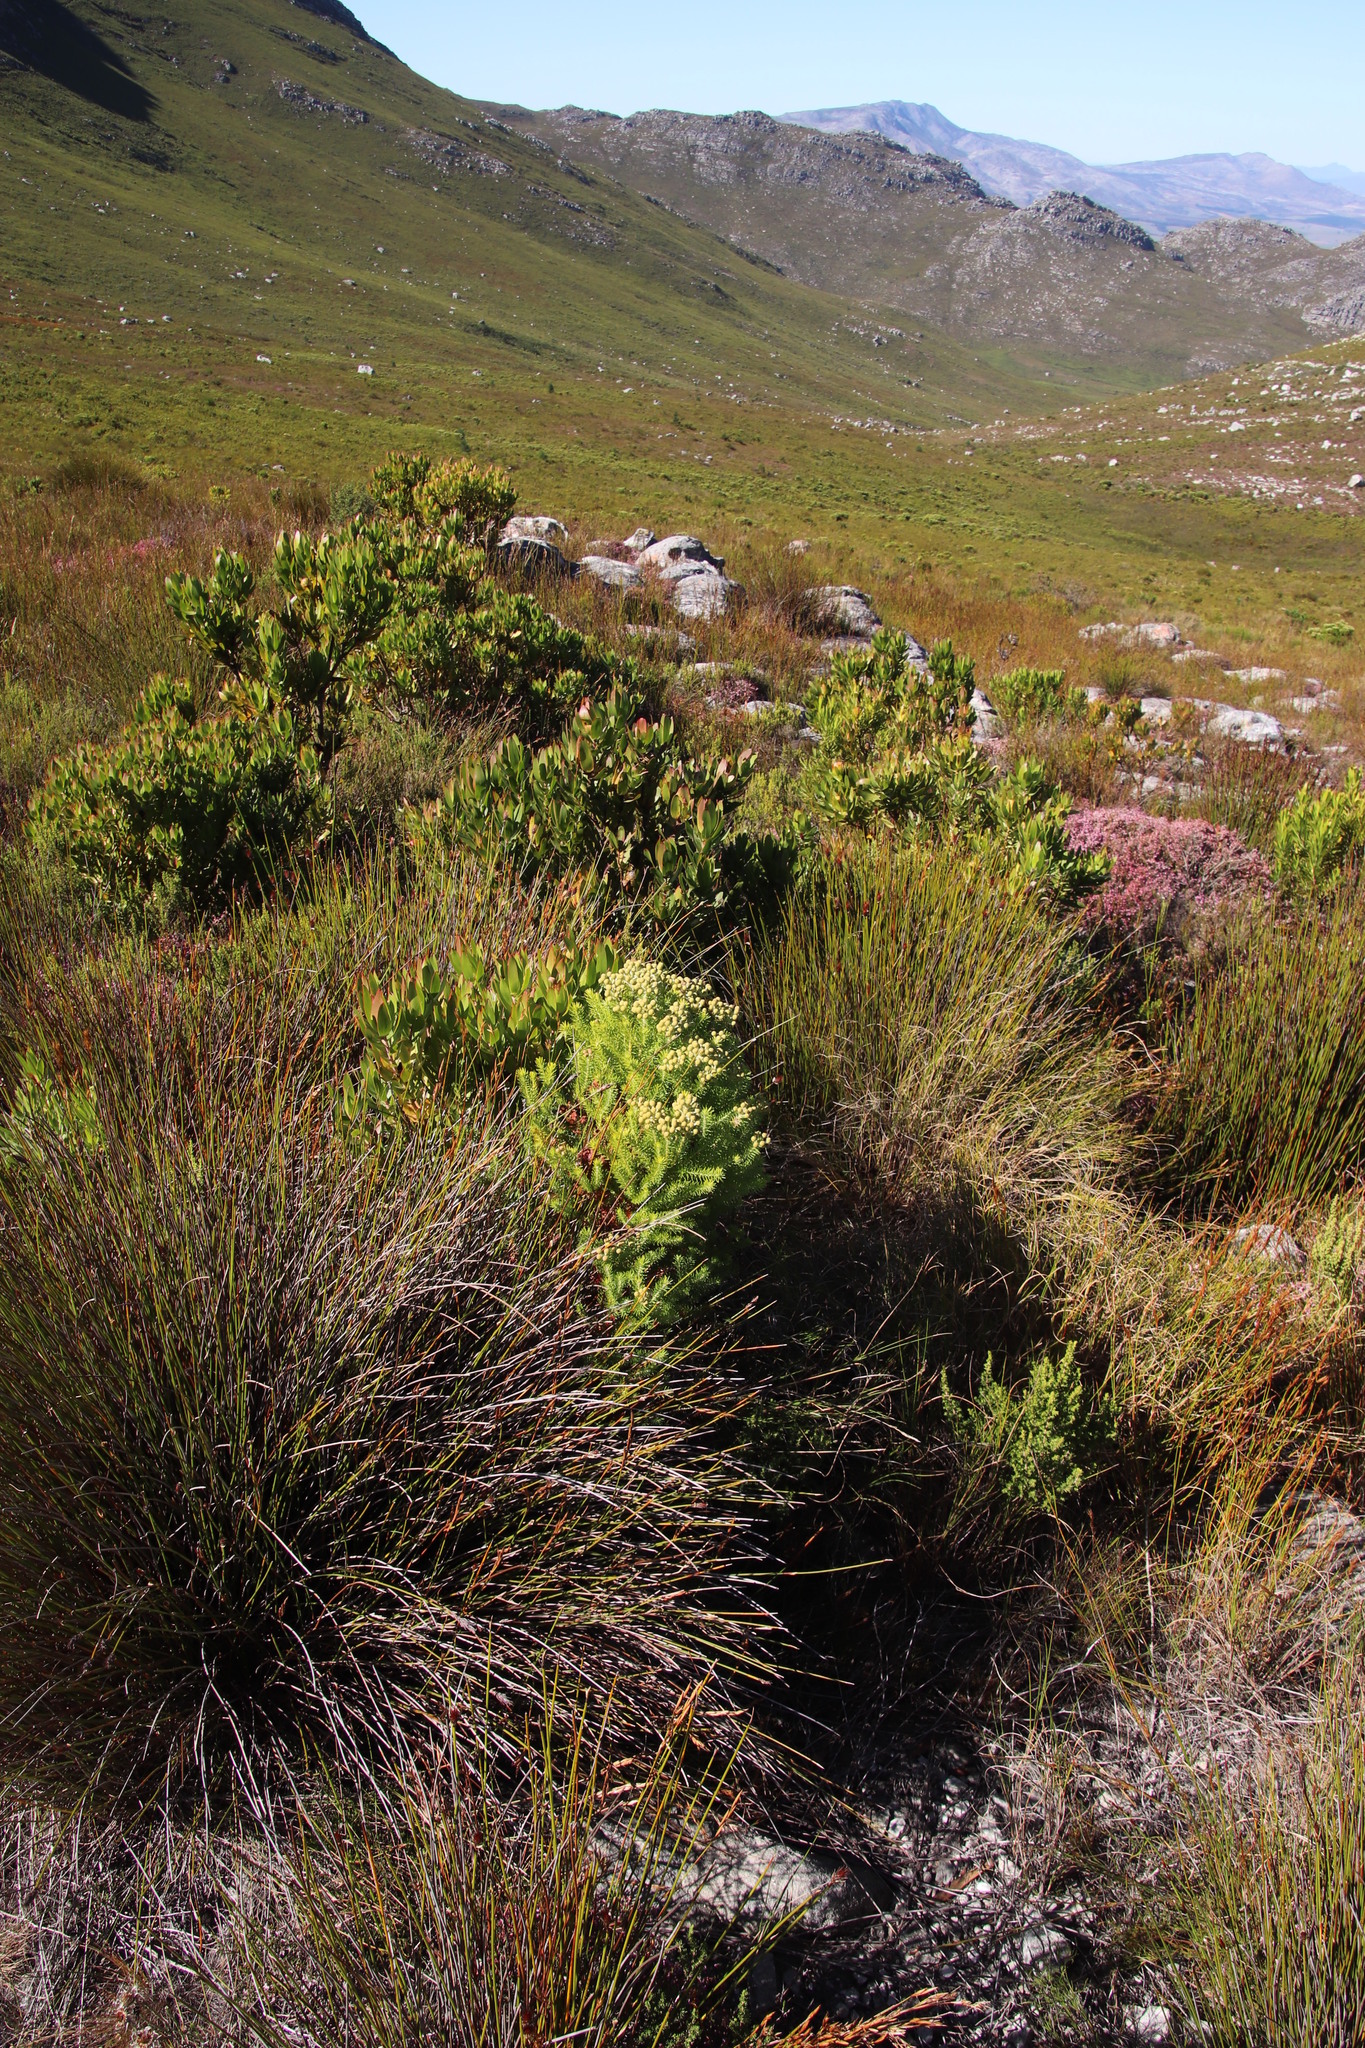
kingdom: Plantae
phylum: Tracheophyta
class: Magnoliopsida
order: Bruniales
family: Bruniaceae
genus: Berzelia
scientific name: Berzelia intermedia
